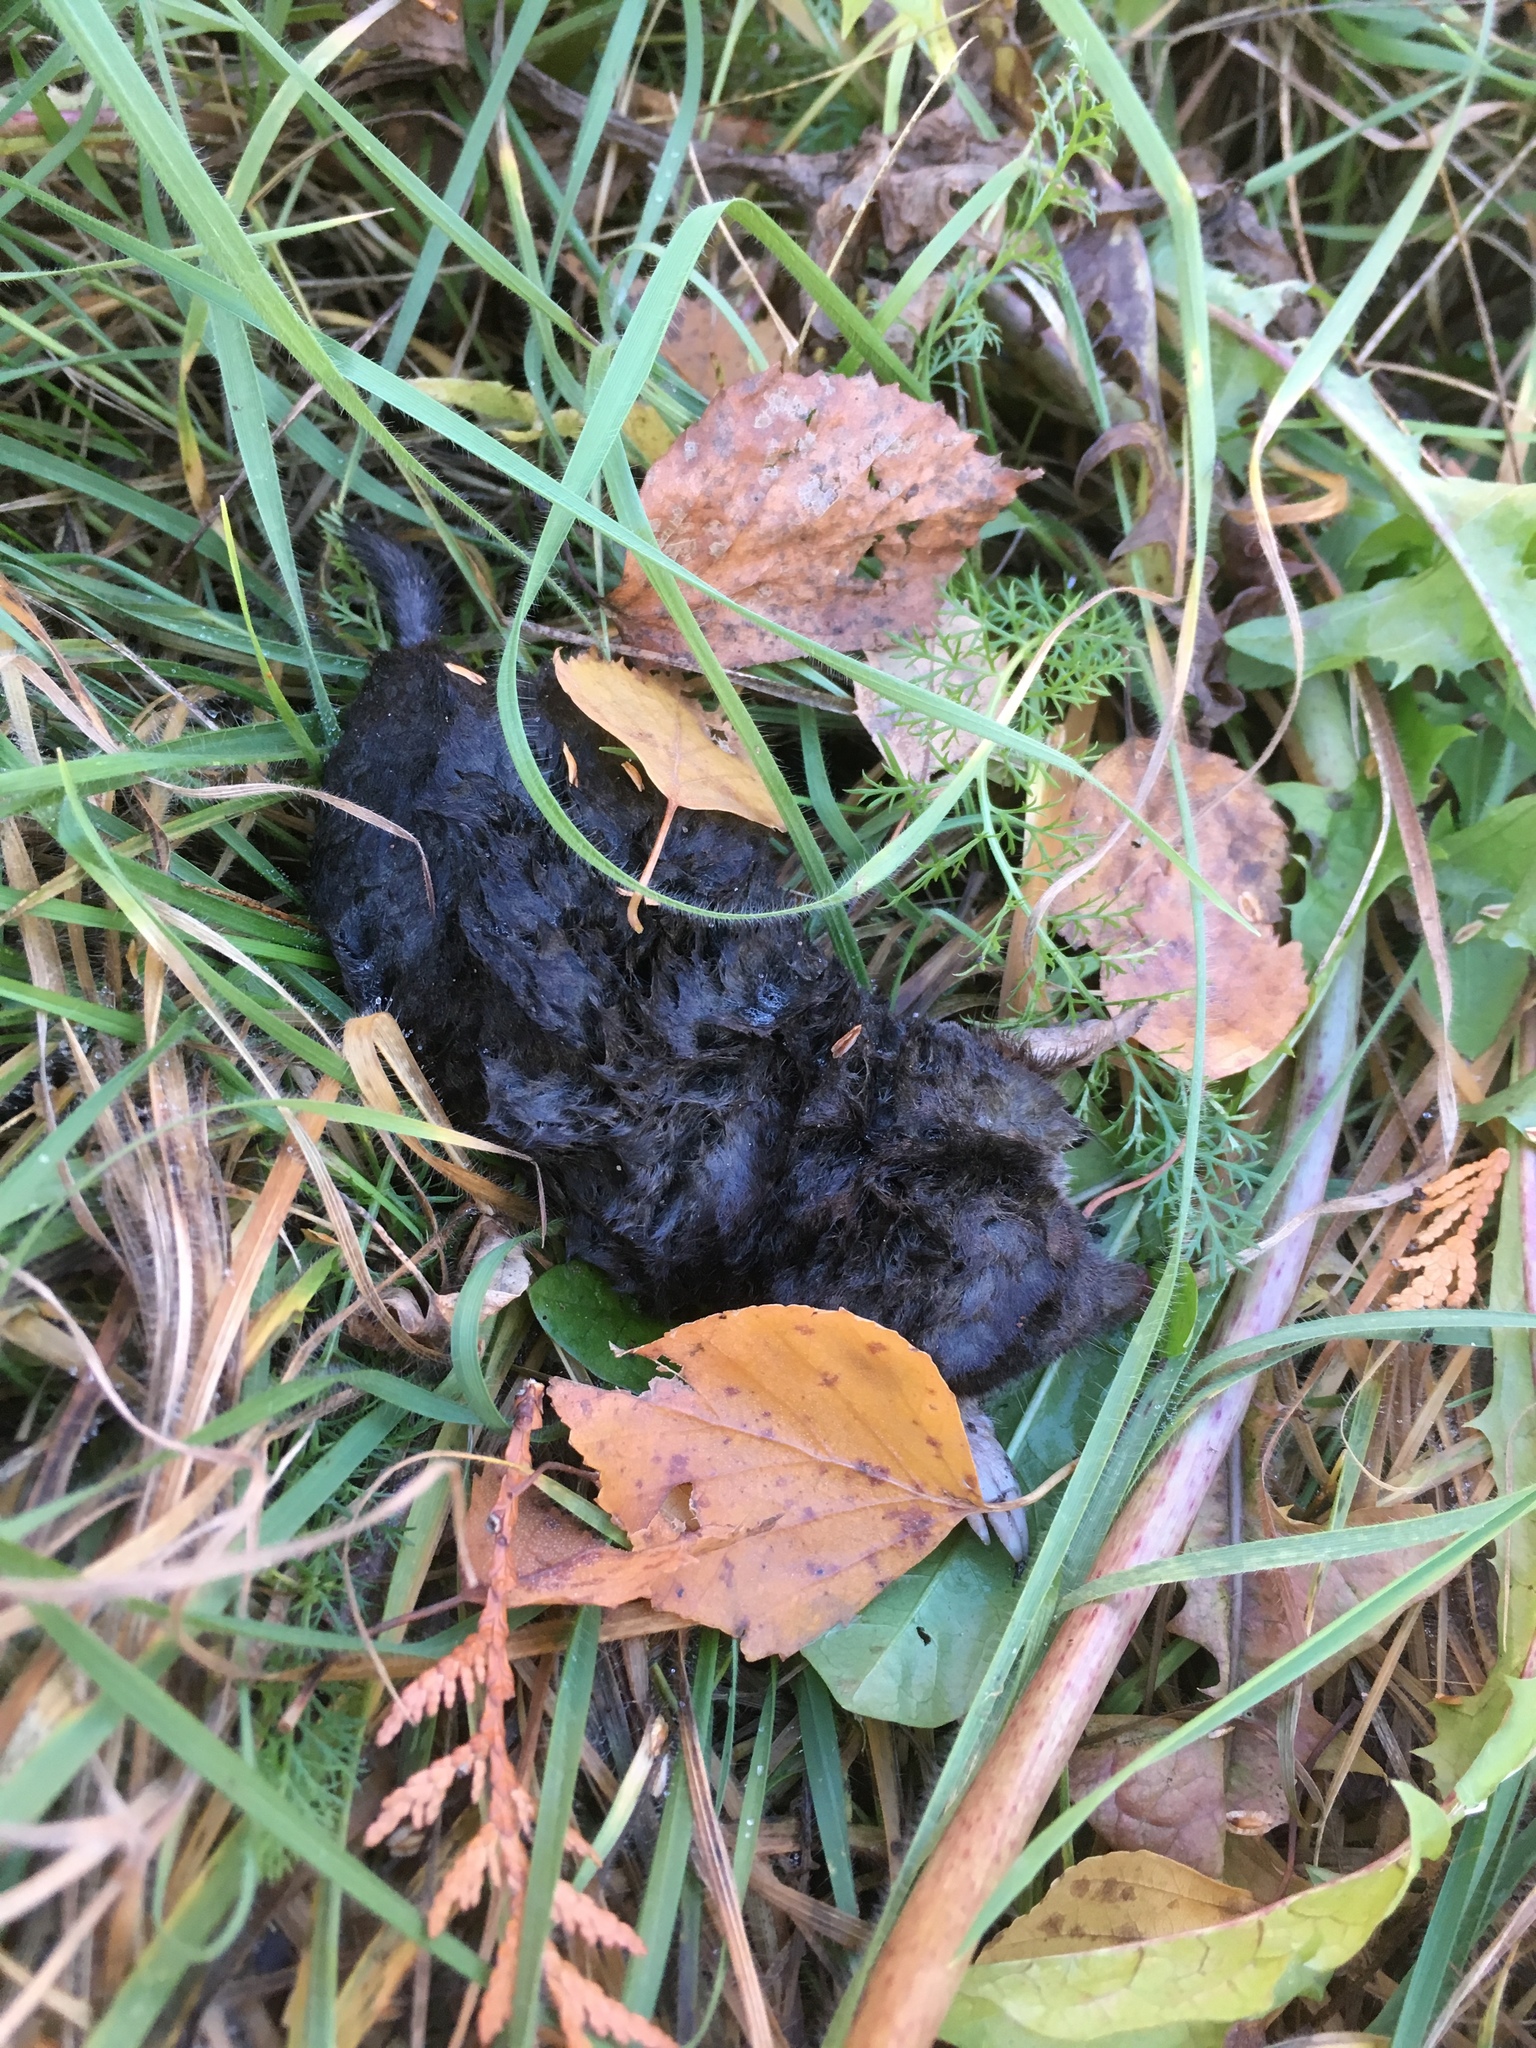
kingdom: Animalia
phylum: Chordata
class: Mammalia
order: Soricomorpha
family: Talpidae
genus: Talpa
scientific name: Talpa europaea
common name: European mole
